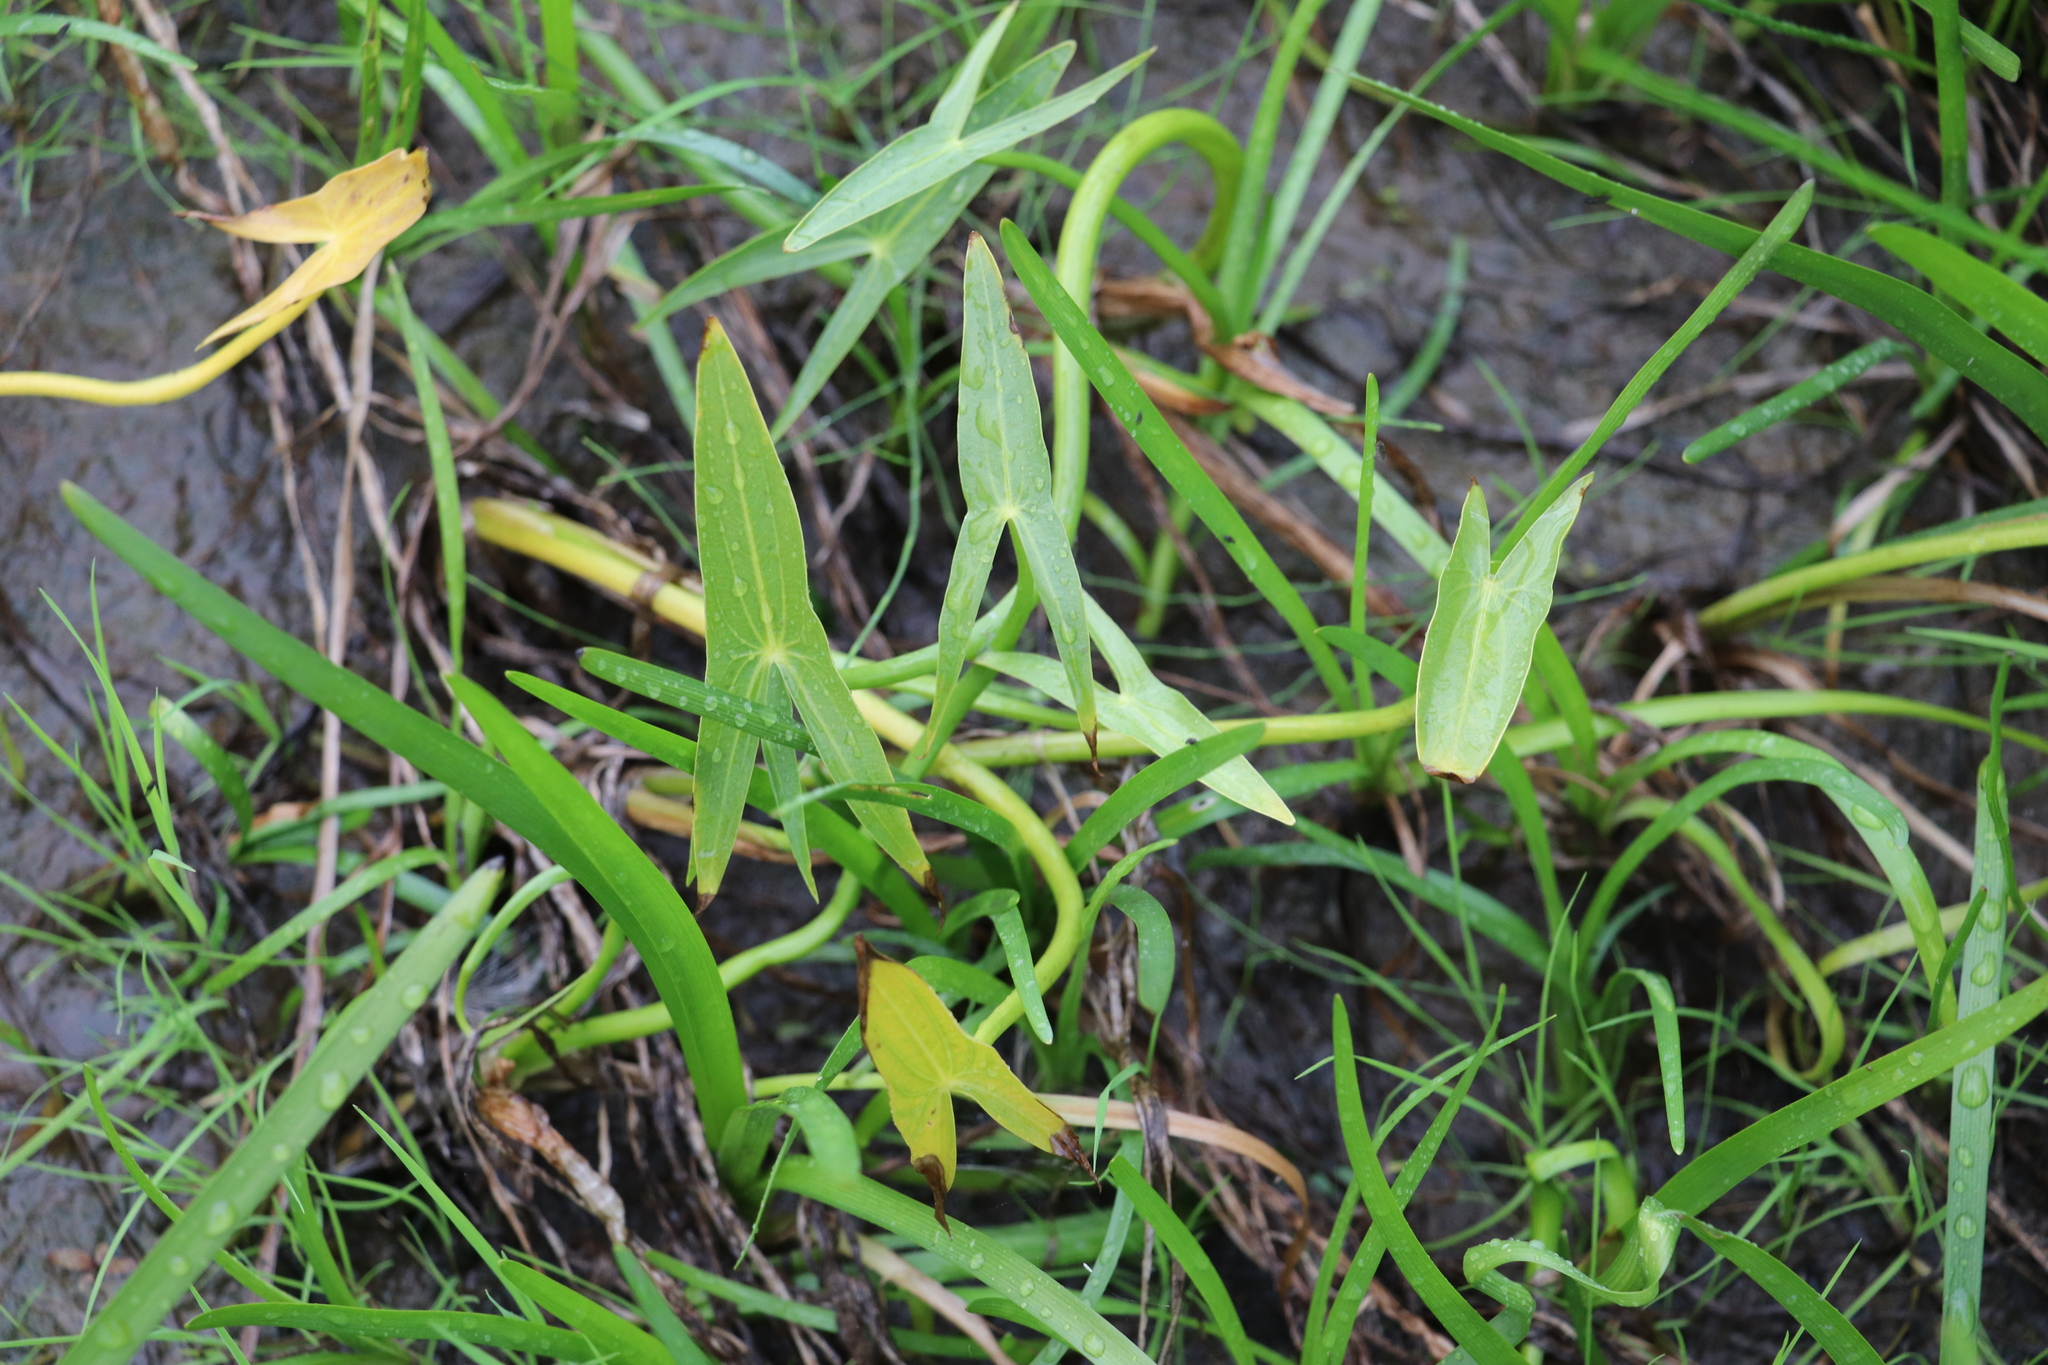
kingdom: Plantae
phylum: Tracheophyta
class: Liliopsida
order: Alismatales
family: Alismataceae
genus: Sagittaria
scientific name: Sagittaria sagittifolia
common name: Arrowhead
